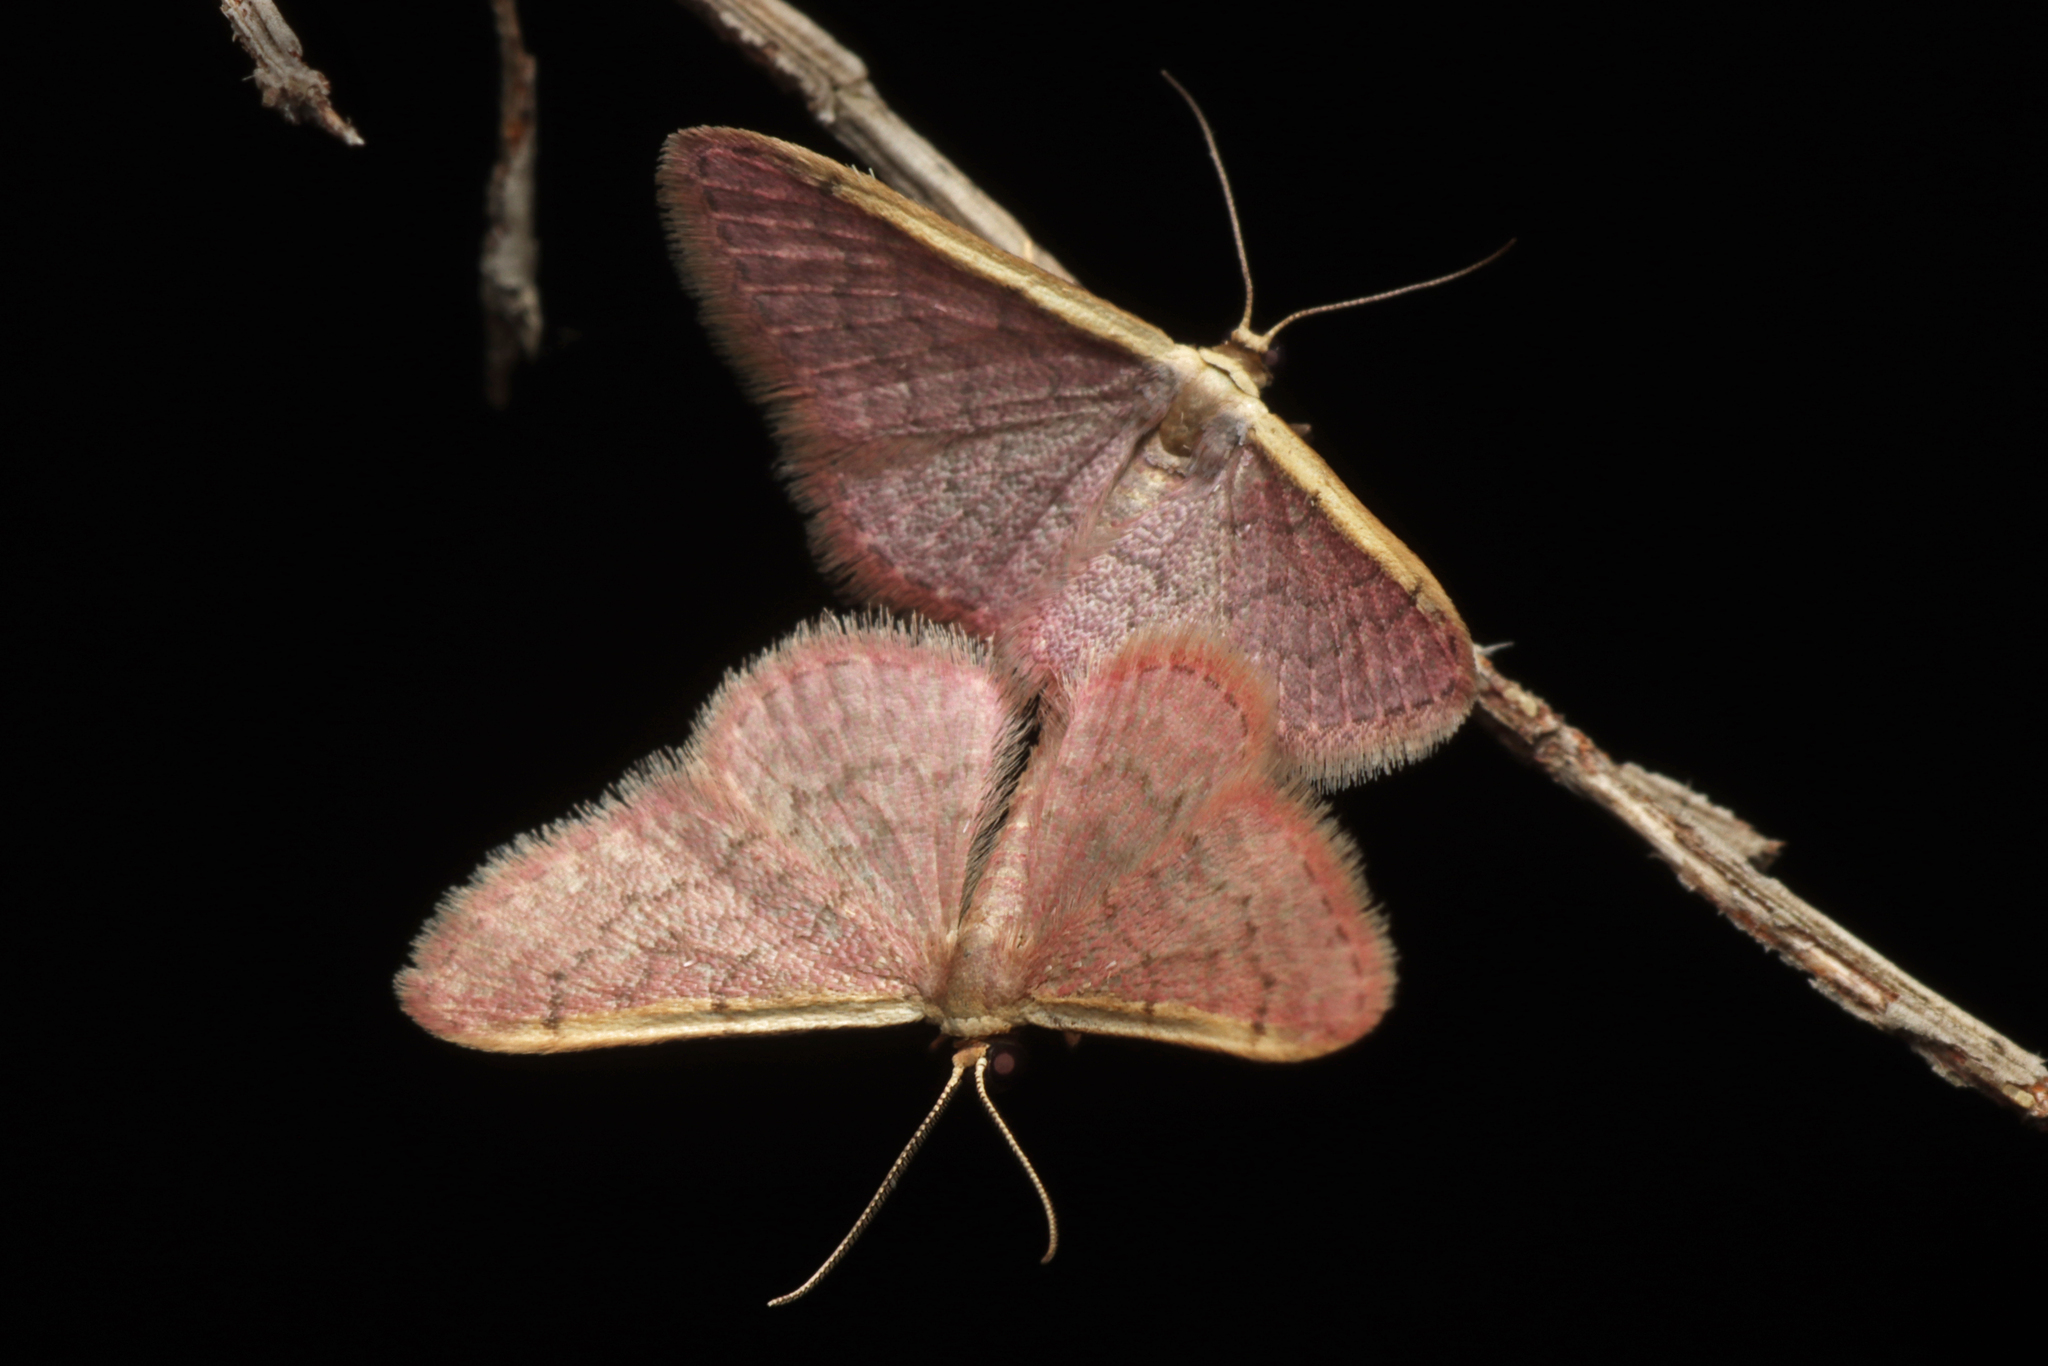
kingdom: Animalia
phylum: Arthropoda
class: Insecta
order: Lepidoptera
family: Geometridae
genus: Idaea
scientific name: Idaea costaria
